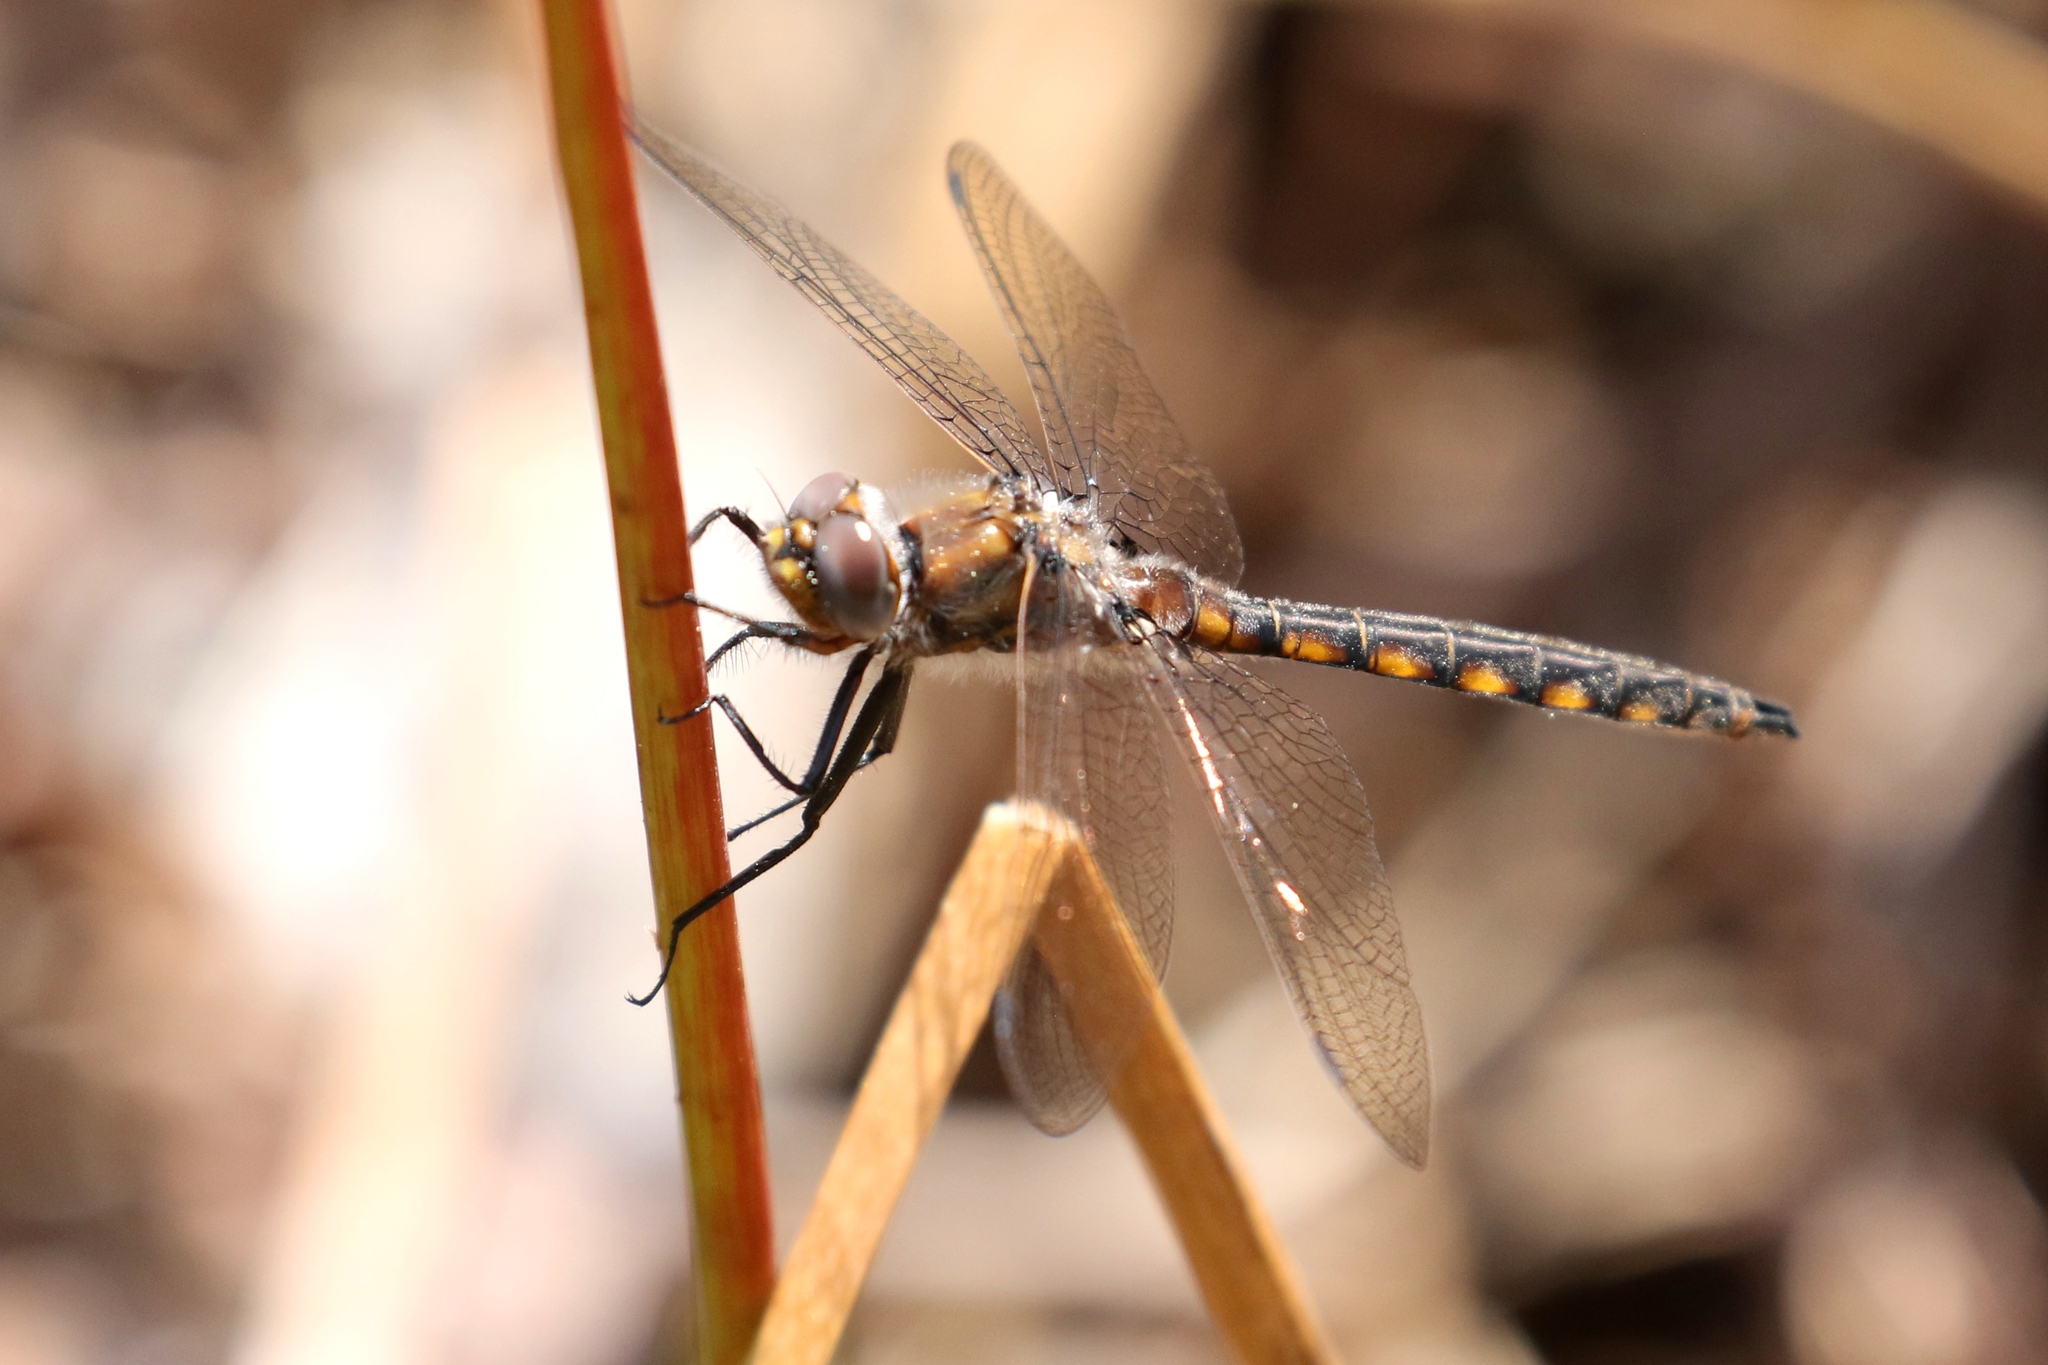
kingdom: Animalia
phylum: Arthropoda
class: Insecta
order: Odonata
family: Corduliidae
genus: Epitheca
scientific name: Epitheca canis
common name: Beaverpond baskettail
